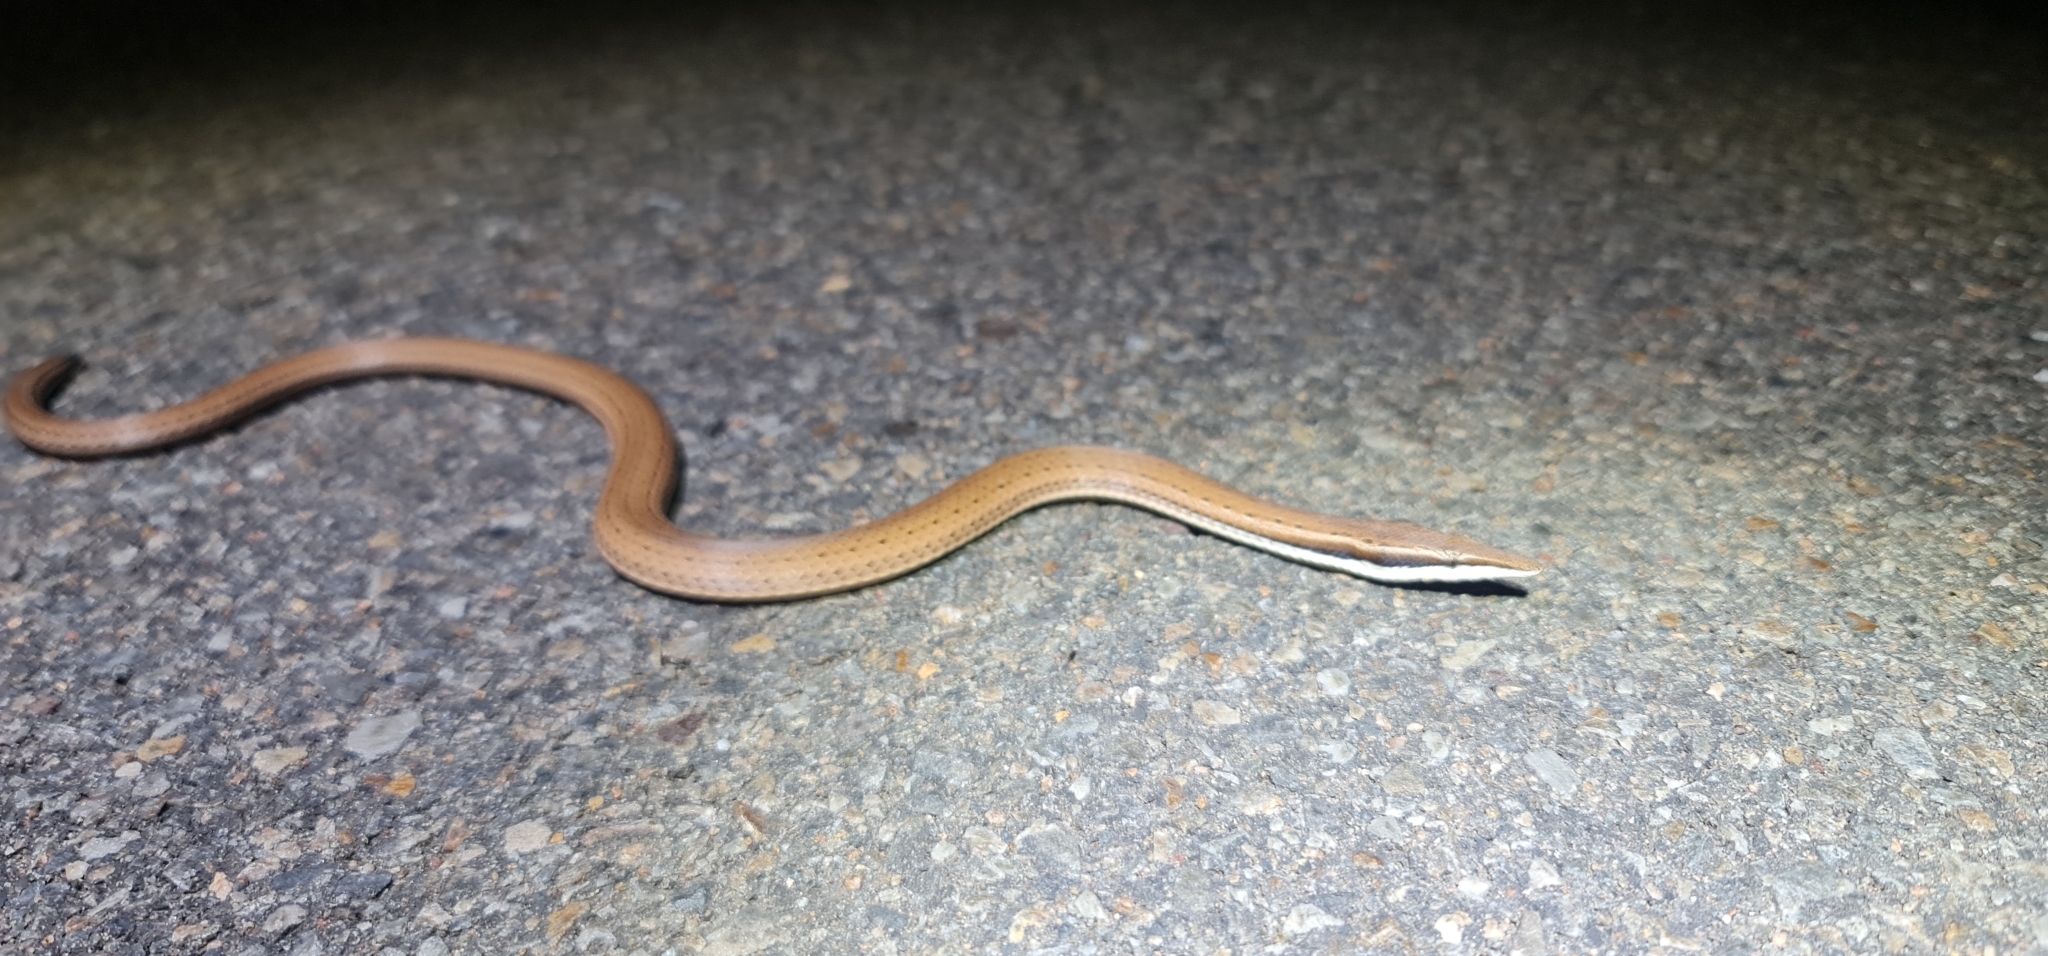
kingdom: Animalia
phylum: Chordata
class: Squamata
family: Pygopodidae
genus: Lialis
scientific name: Lialis burtonis
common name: Burton's legless lizard
